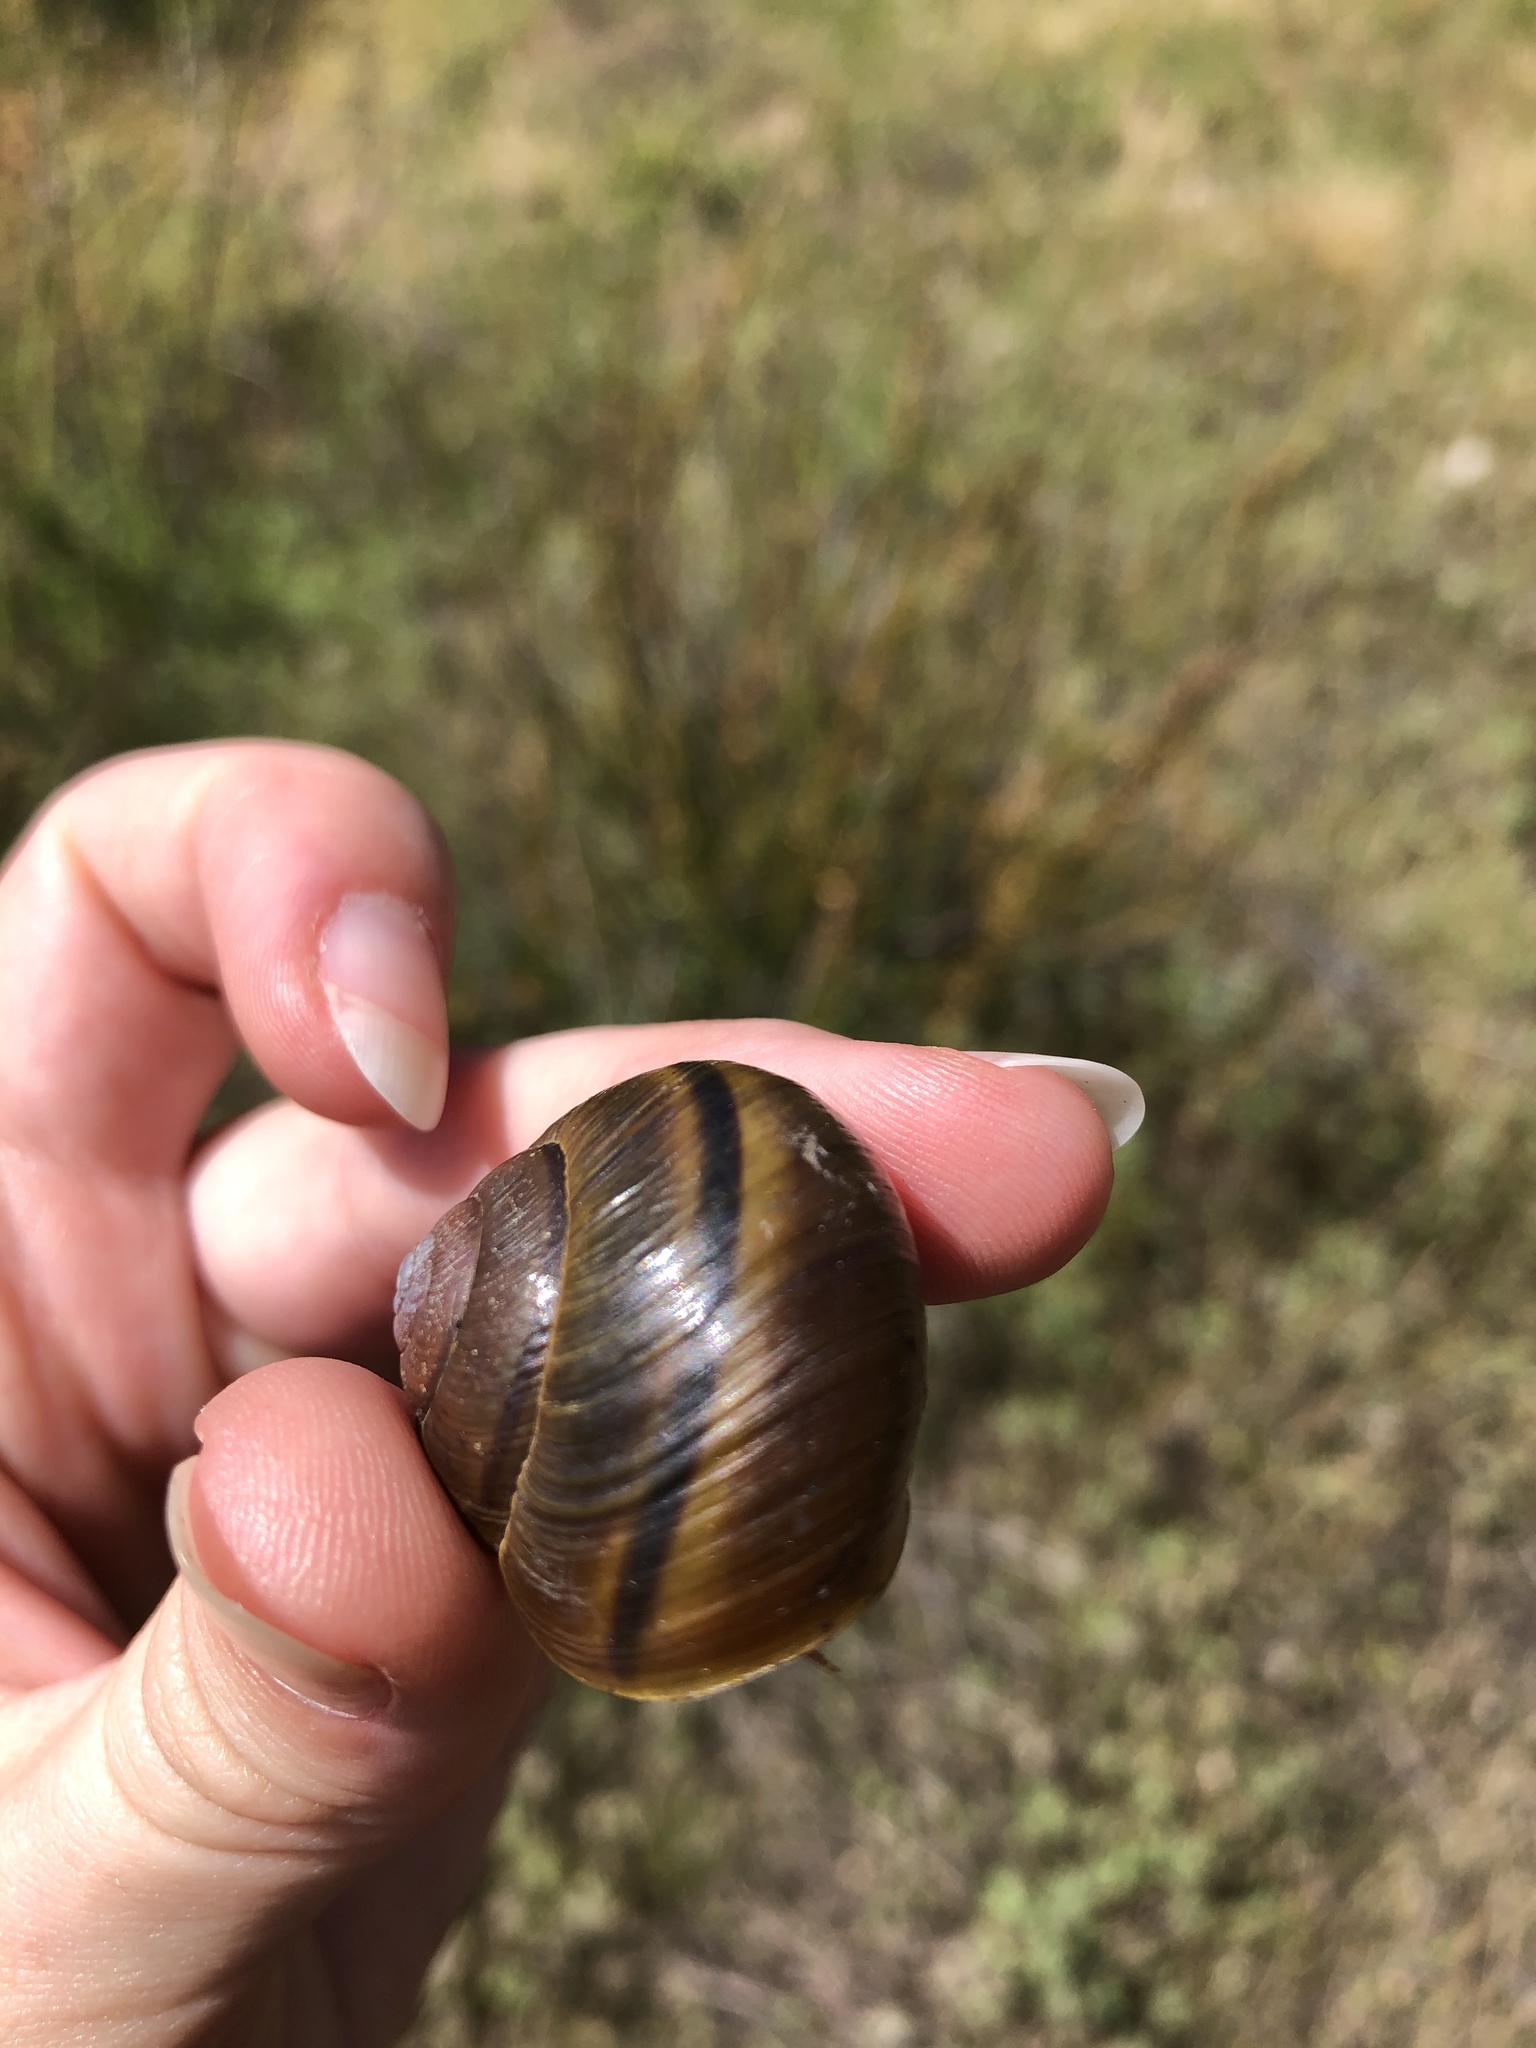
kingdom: Animalia
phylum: Mollusca
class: Gastropoda
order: Stylommatophora
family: Xanthonychidae
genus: Helminthoglypta
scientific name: Helminthoglypta tudiculata
